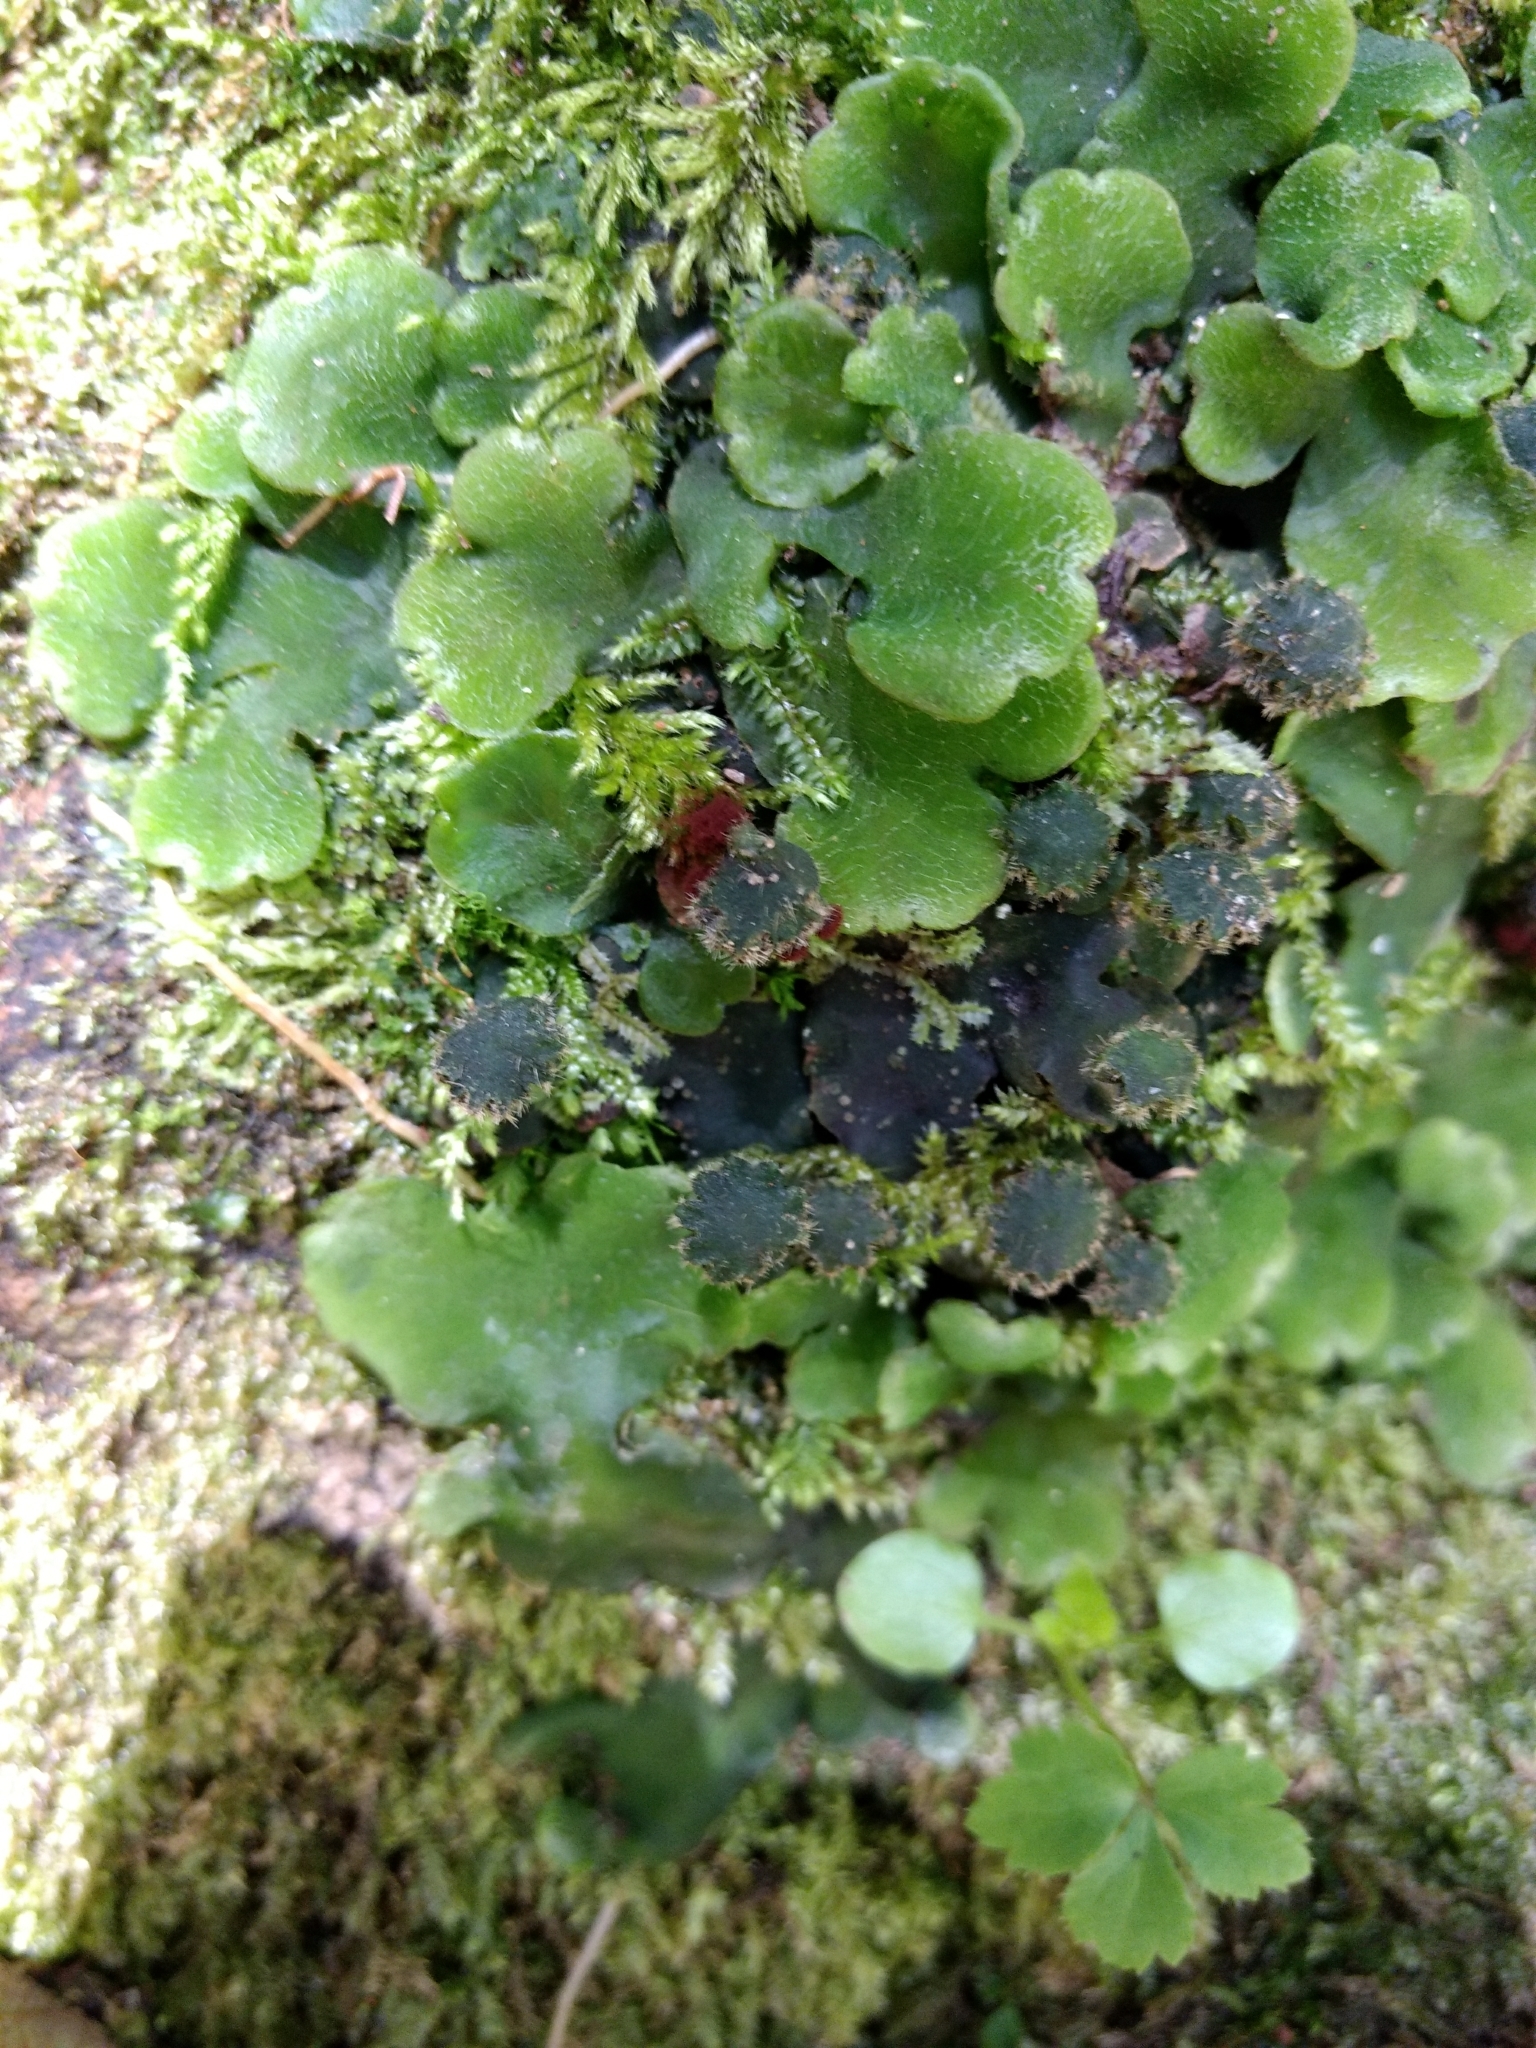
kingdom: Plantae
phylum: Marchantiophyta
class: Marchantiopsida
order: Marchantiales
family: Dumortieraceae
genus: Dumortiera
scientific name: Dumortiera hirsuta
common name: Dumortier's liverwort
